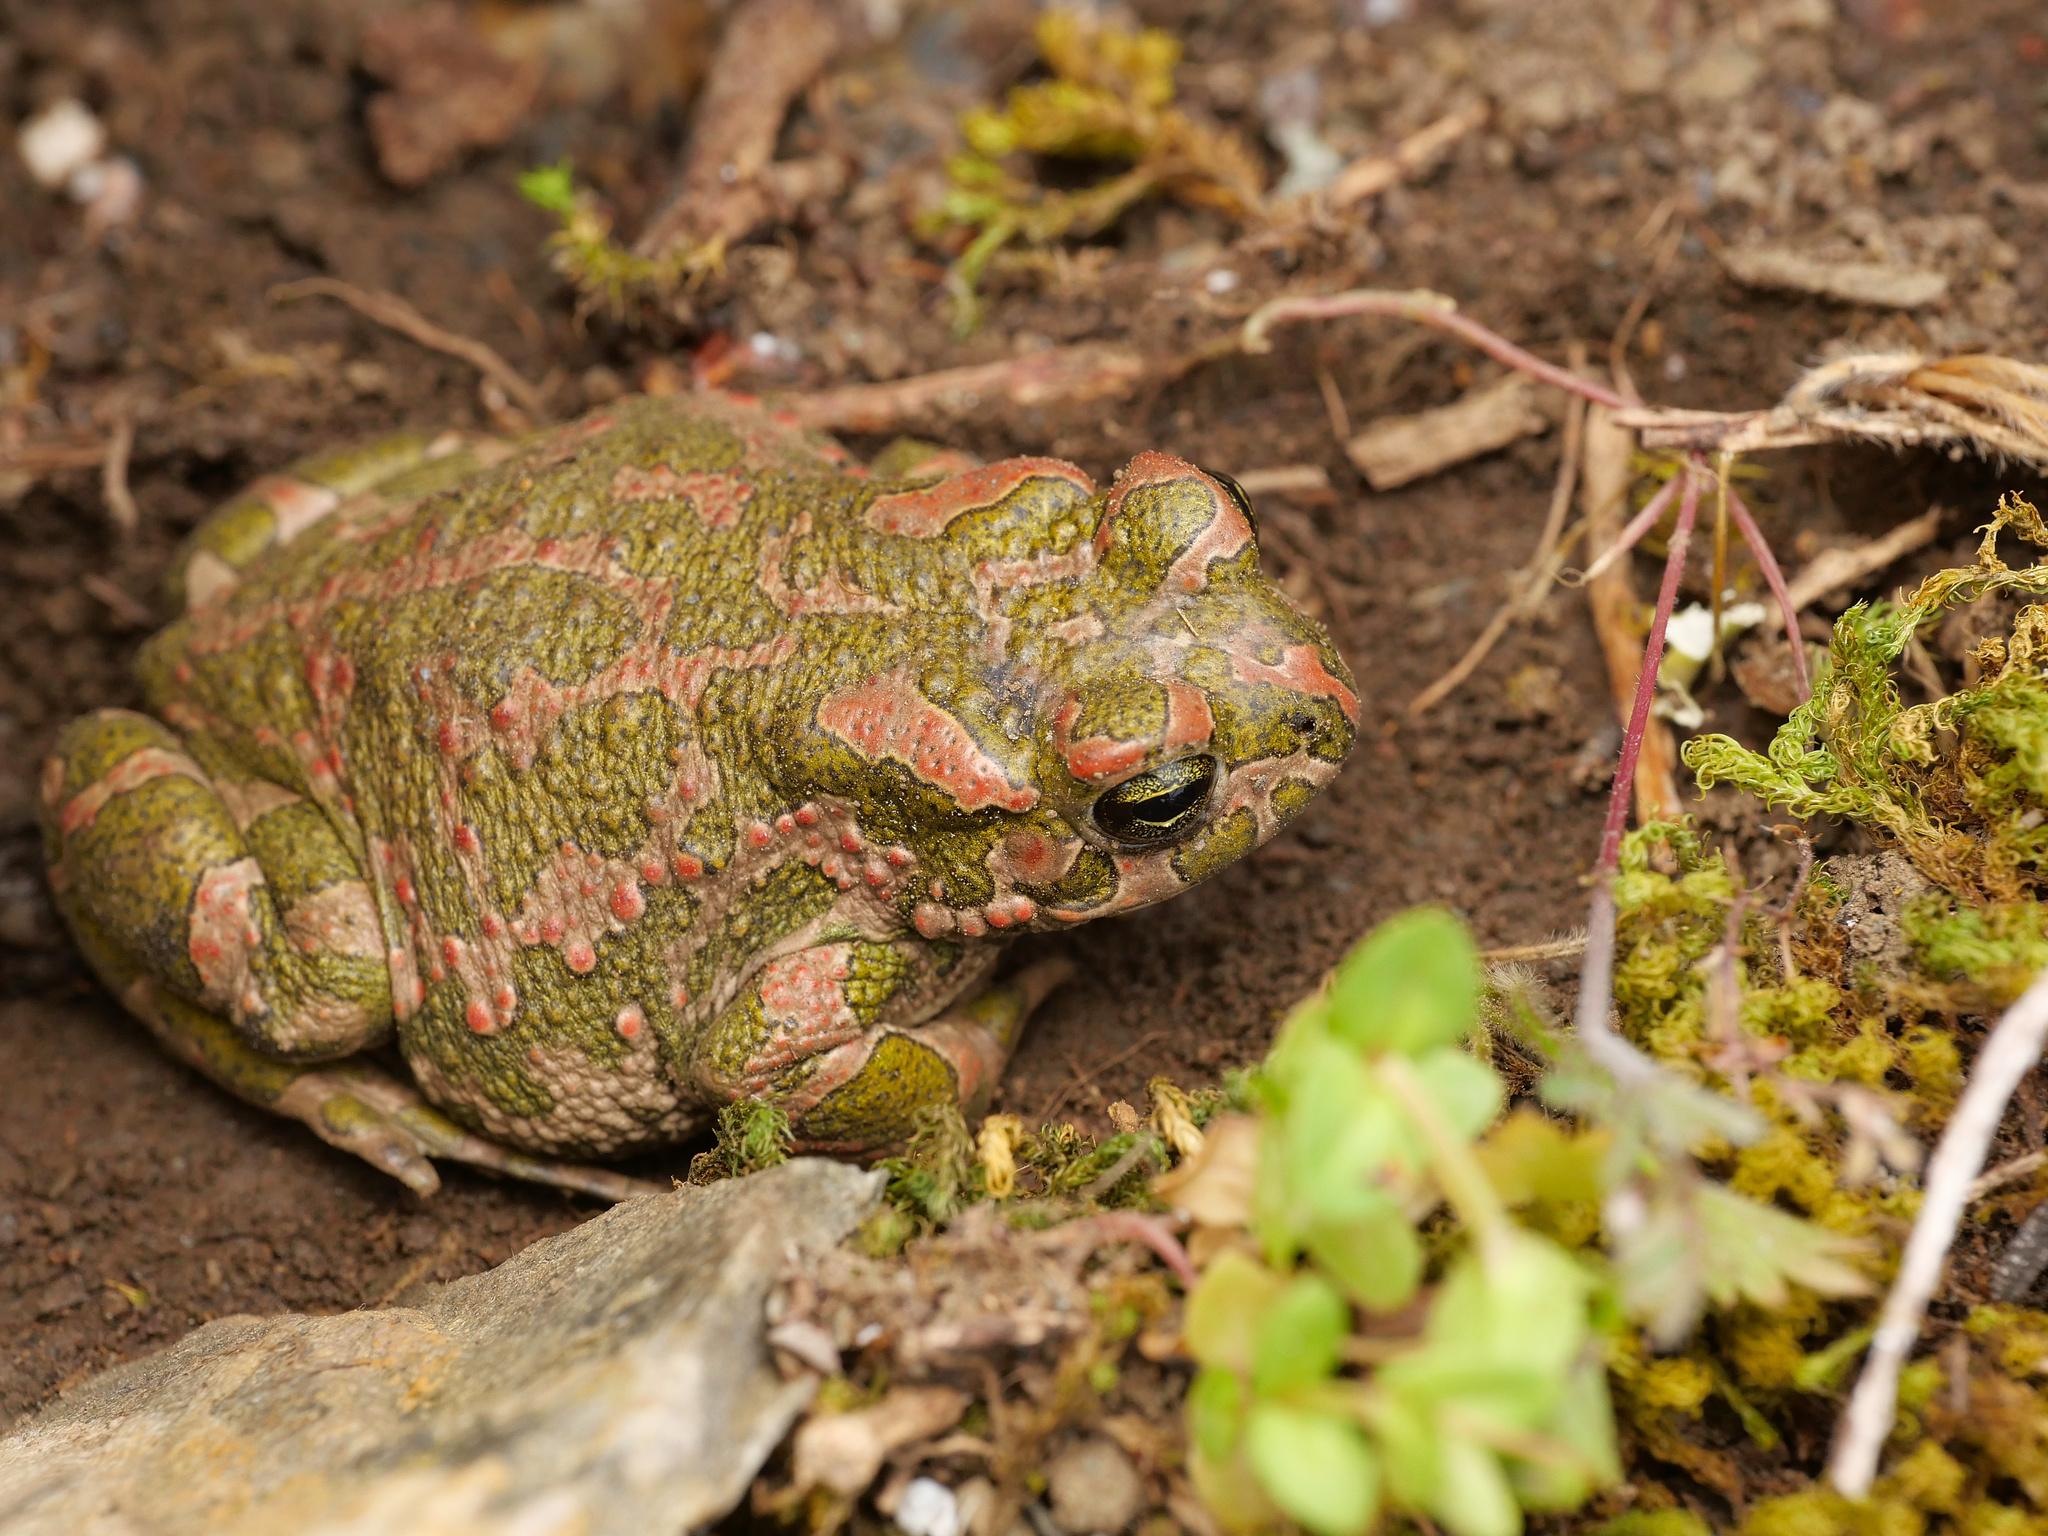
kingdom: Animalia
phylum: Chordata
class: Amphibia
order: Anura
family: Bufonidae
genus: Bufotes
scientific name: Bufotes viridis
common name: European green toad
